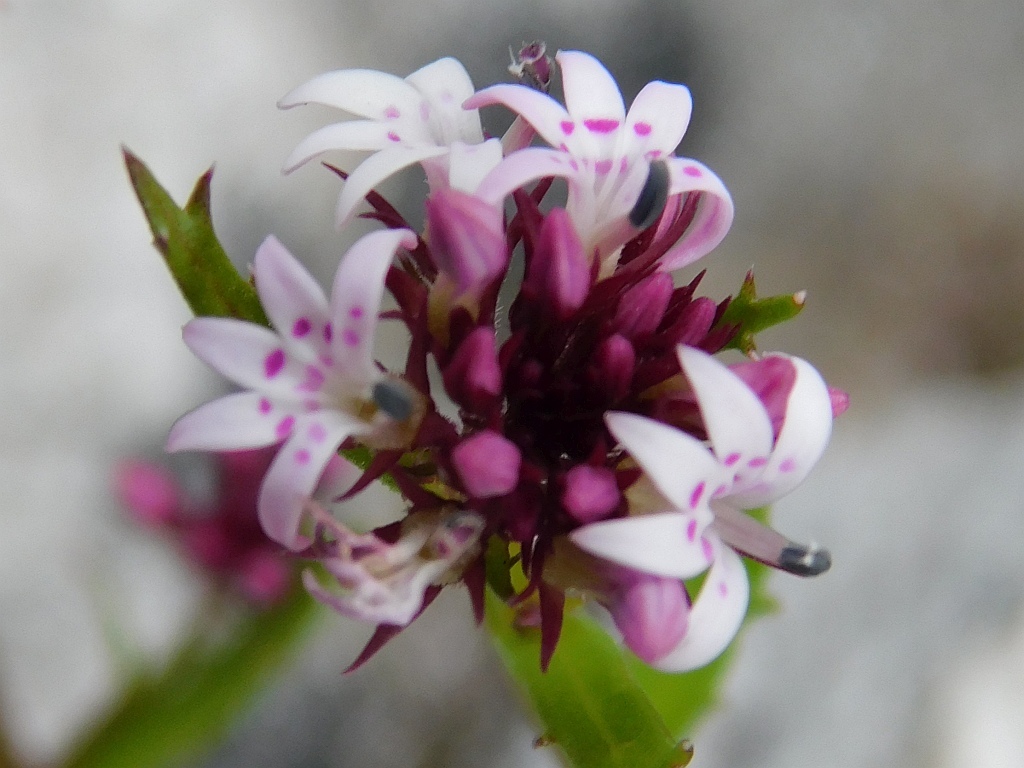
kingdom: Plantae
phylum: Tracheophyta
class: Magnoliopsida
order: Asterales
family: Campanulaceae
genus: Lobelia
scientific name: Lobelia jasionoides
